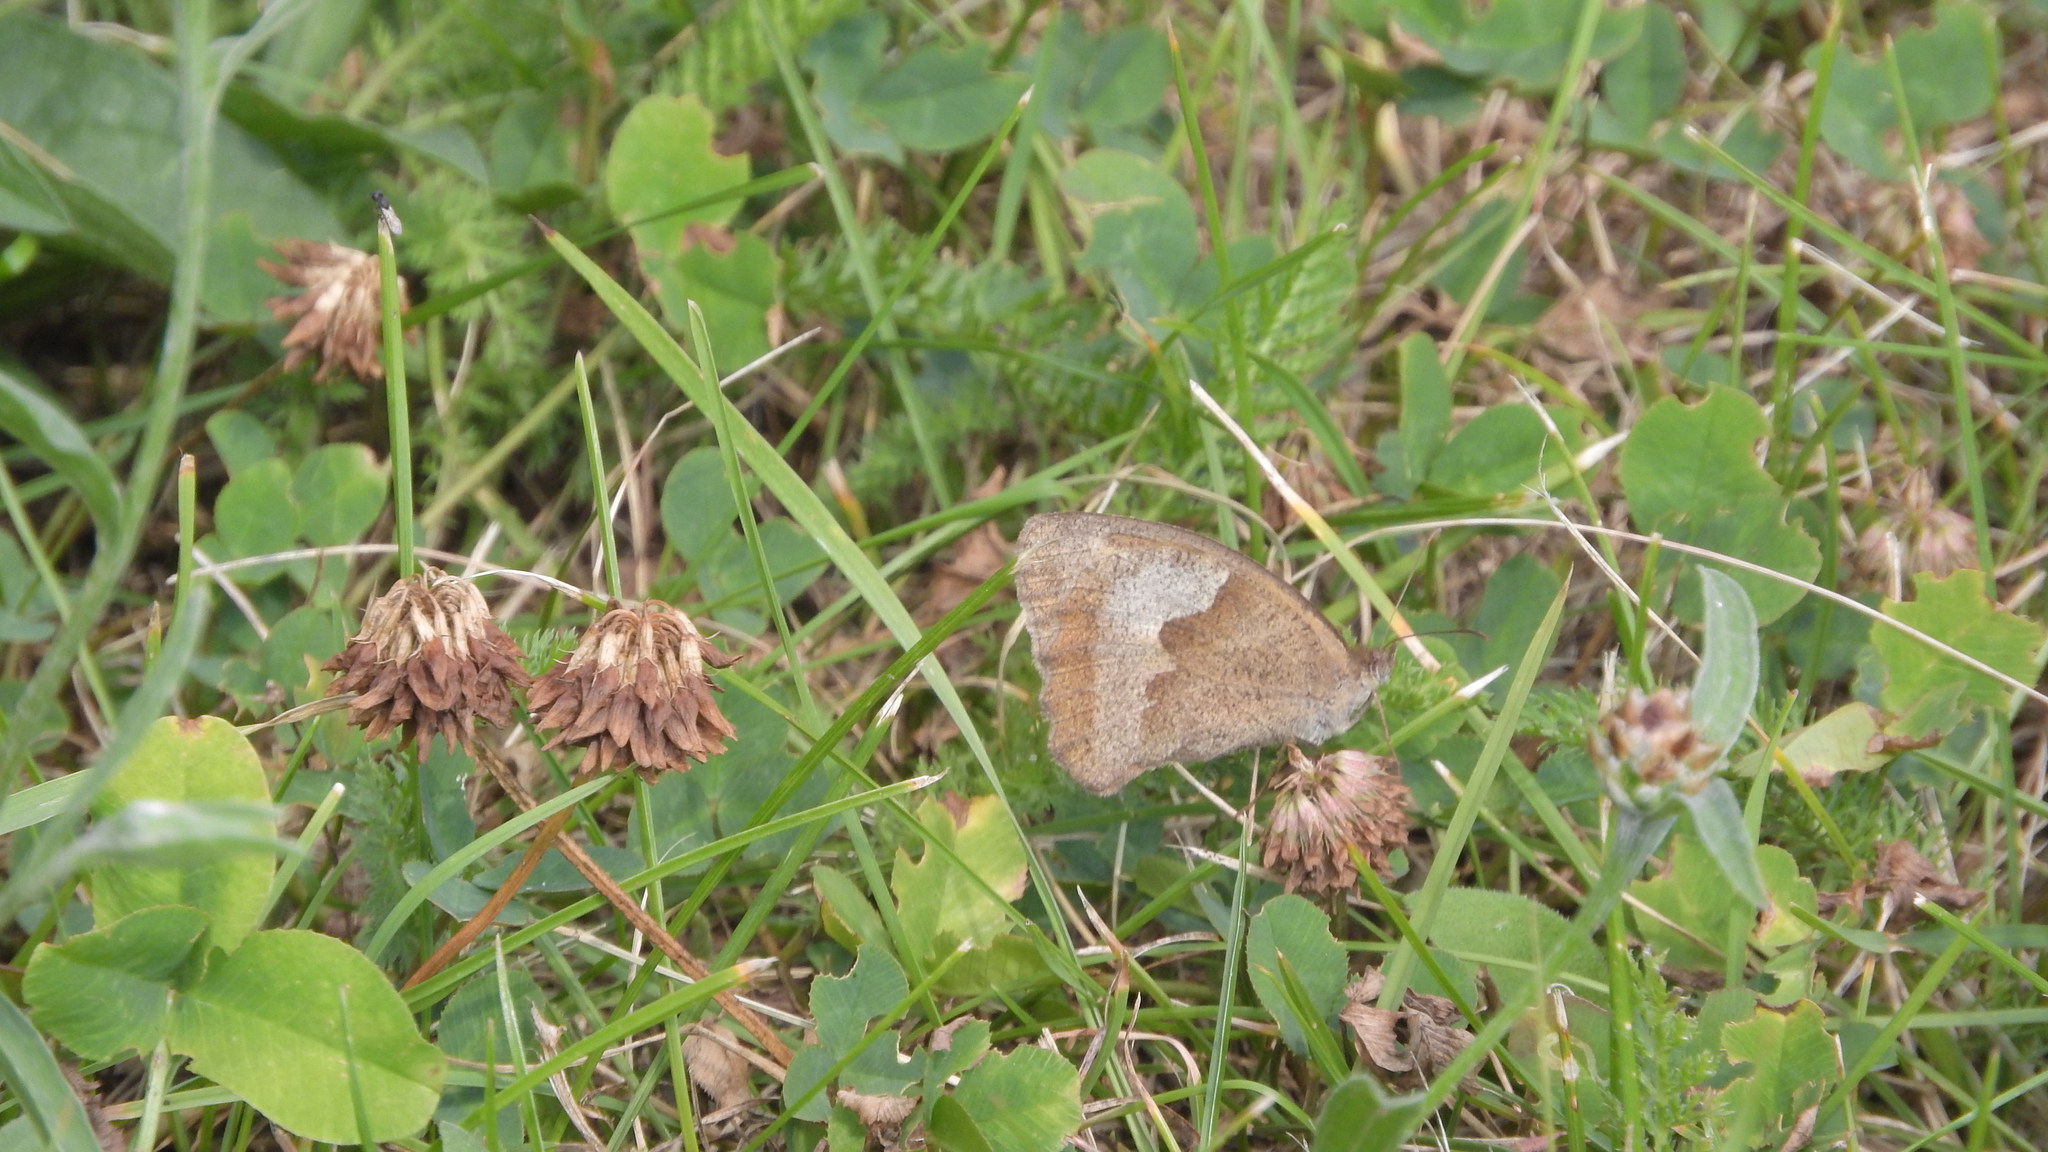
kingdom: Animalia
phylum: Arthropoda
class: Insecta
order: Lepidoptera
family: Nymphalidae
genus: Maniola
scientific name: Maniola jurtina
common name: Meadow brown
